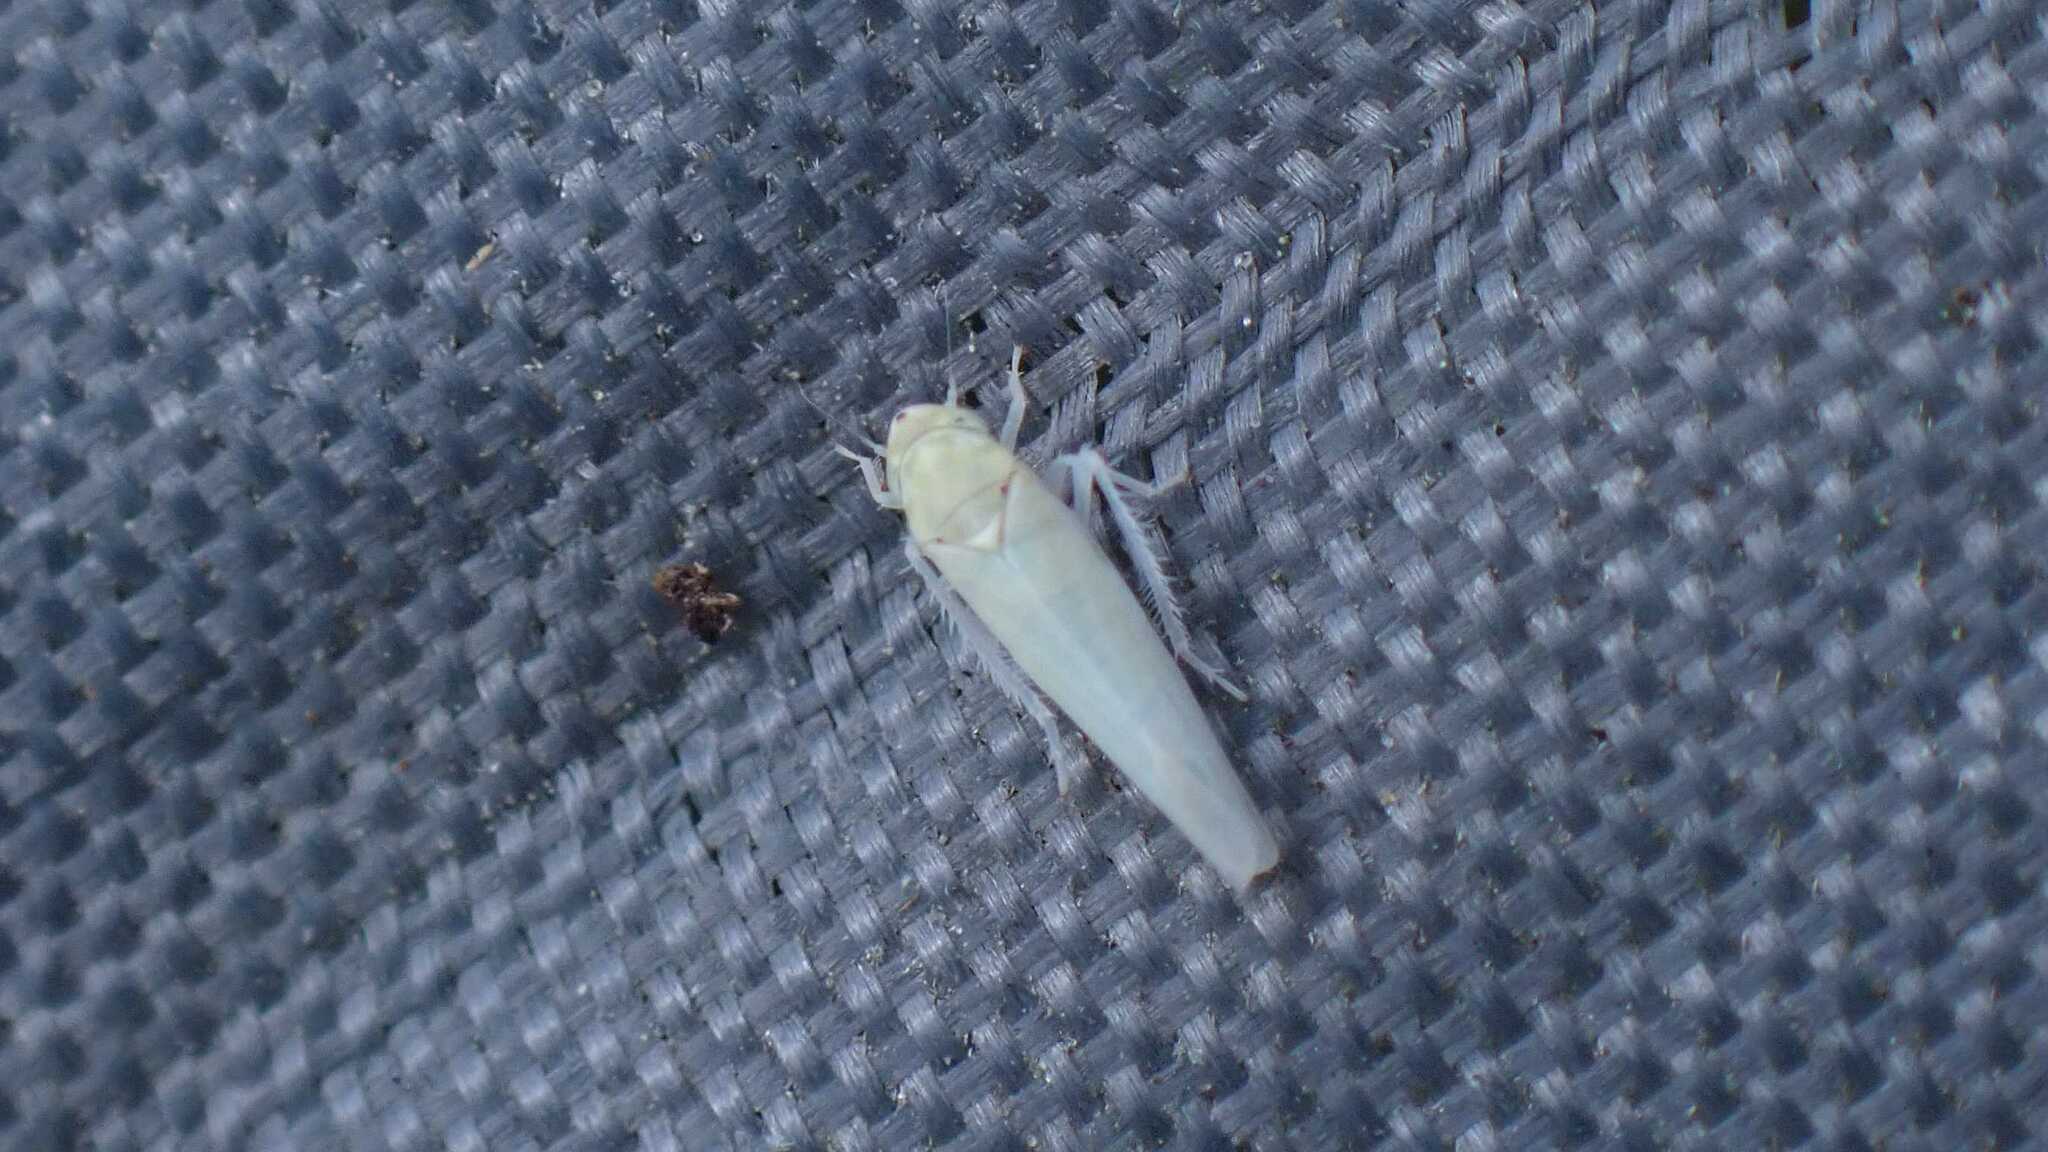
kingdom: Animalia
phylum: Arthropoda
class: Insecta
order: Hemiptera
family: Cicadellidae
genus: Zygina
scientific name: Zygina nivea
